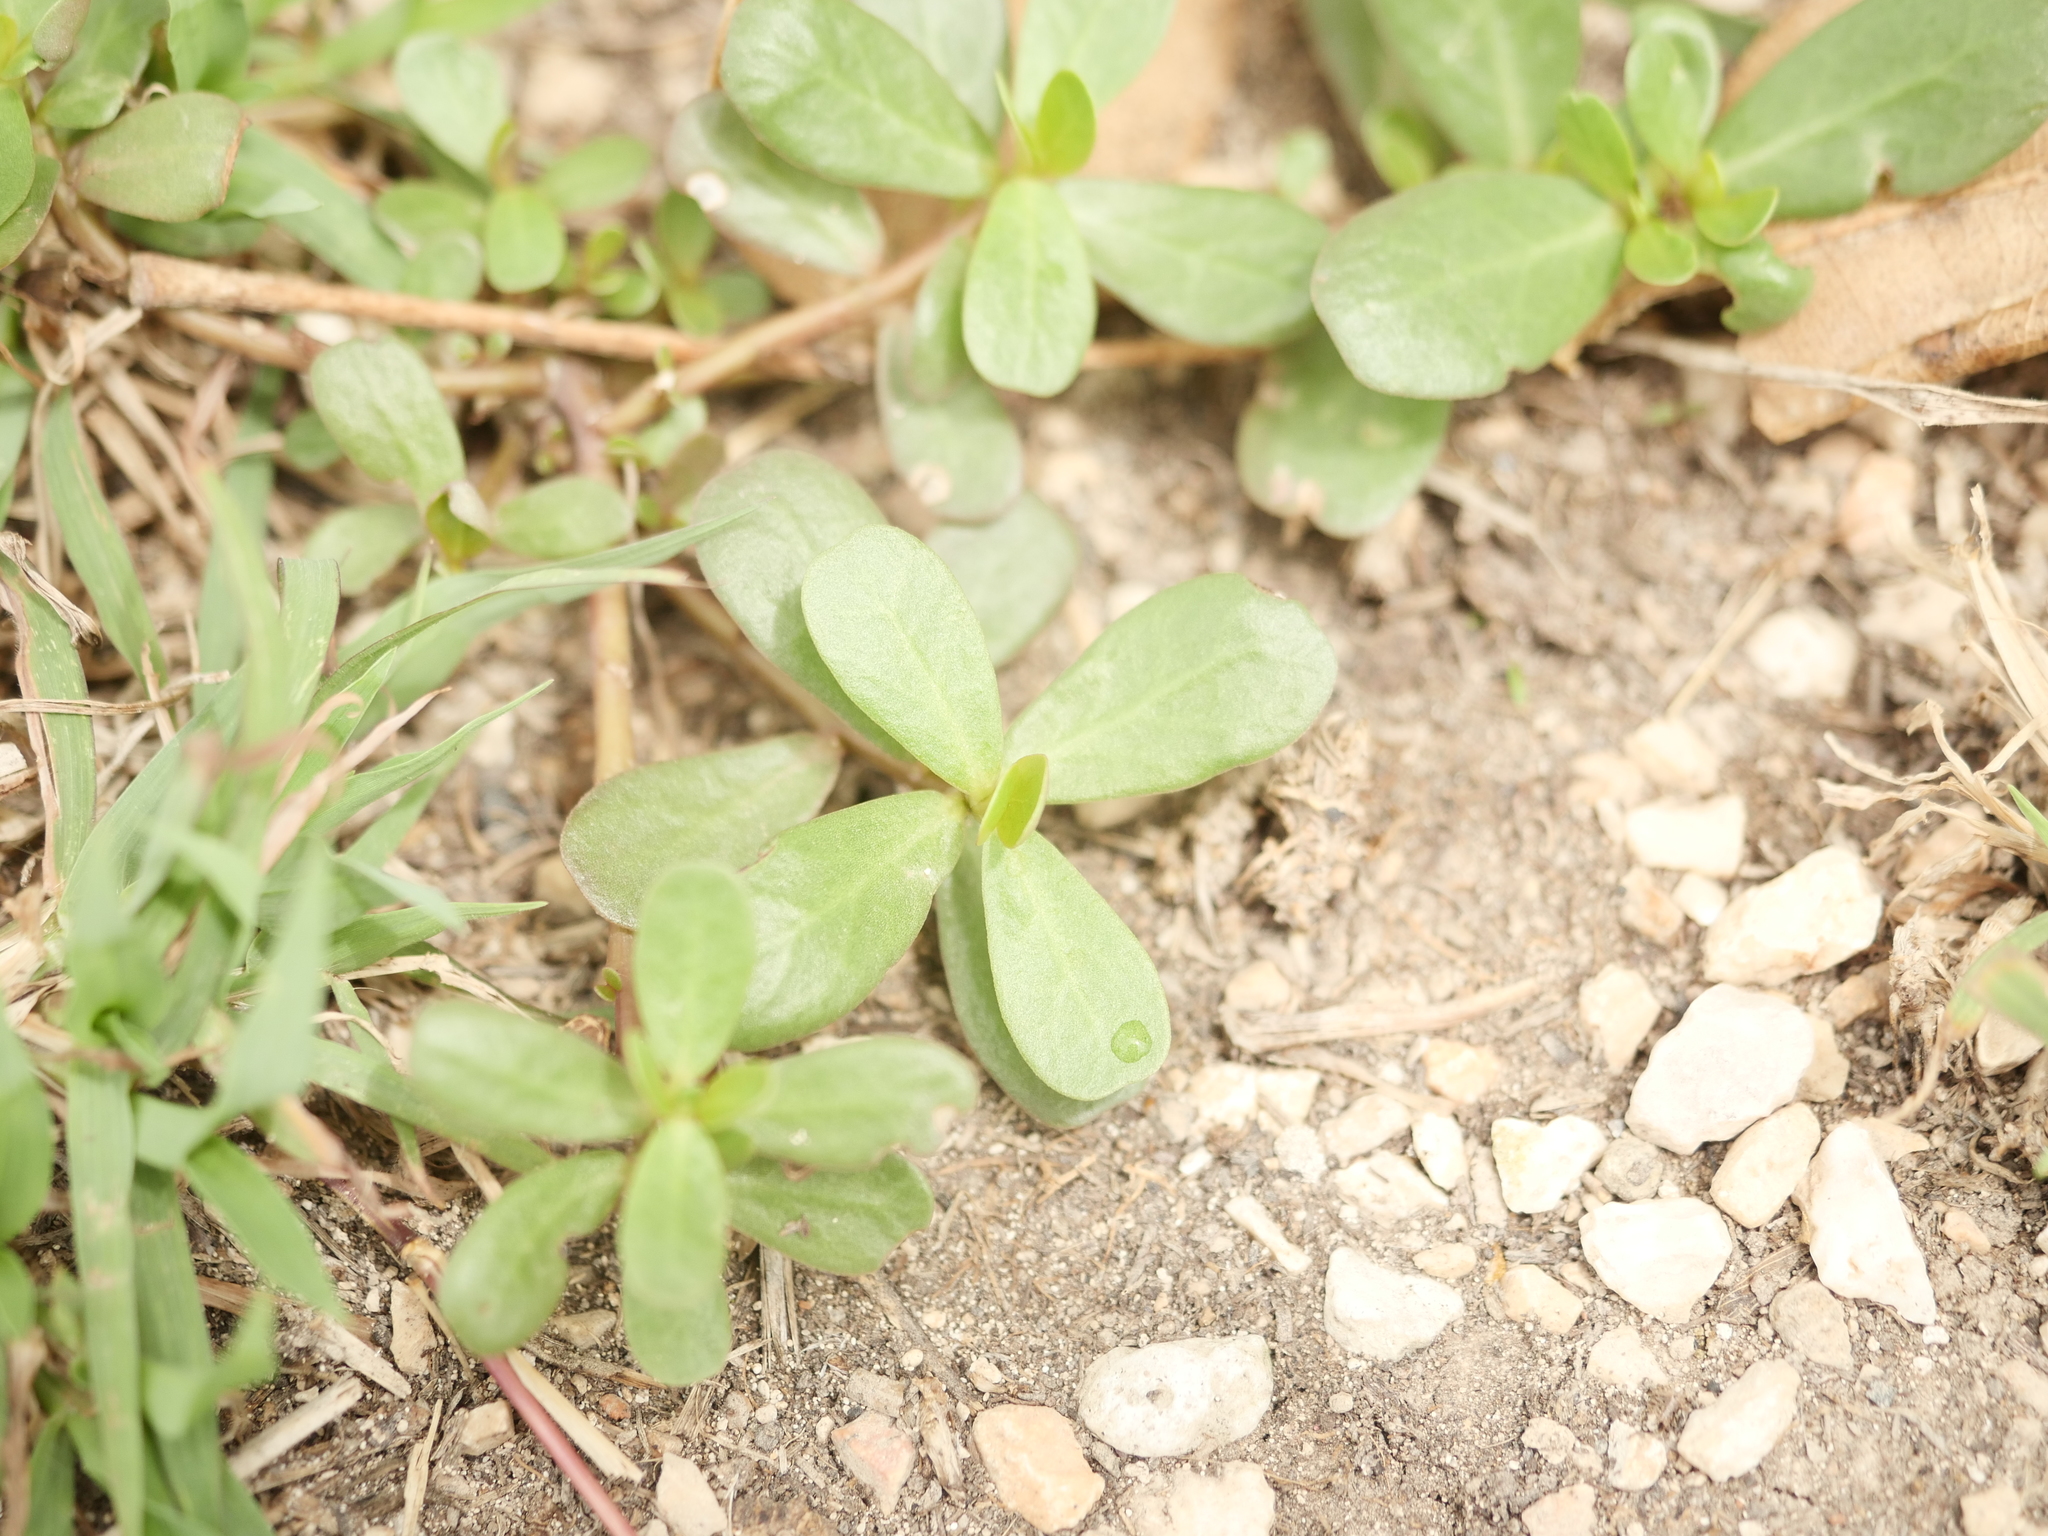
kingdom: Plantae
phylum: Tracheophyta
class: Magnoliopsida
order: Caryophyllales
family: Portulacaceae
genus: Portulaca
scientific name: Portulaca oleracea
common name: Common purslane
